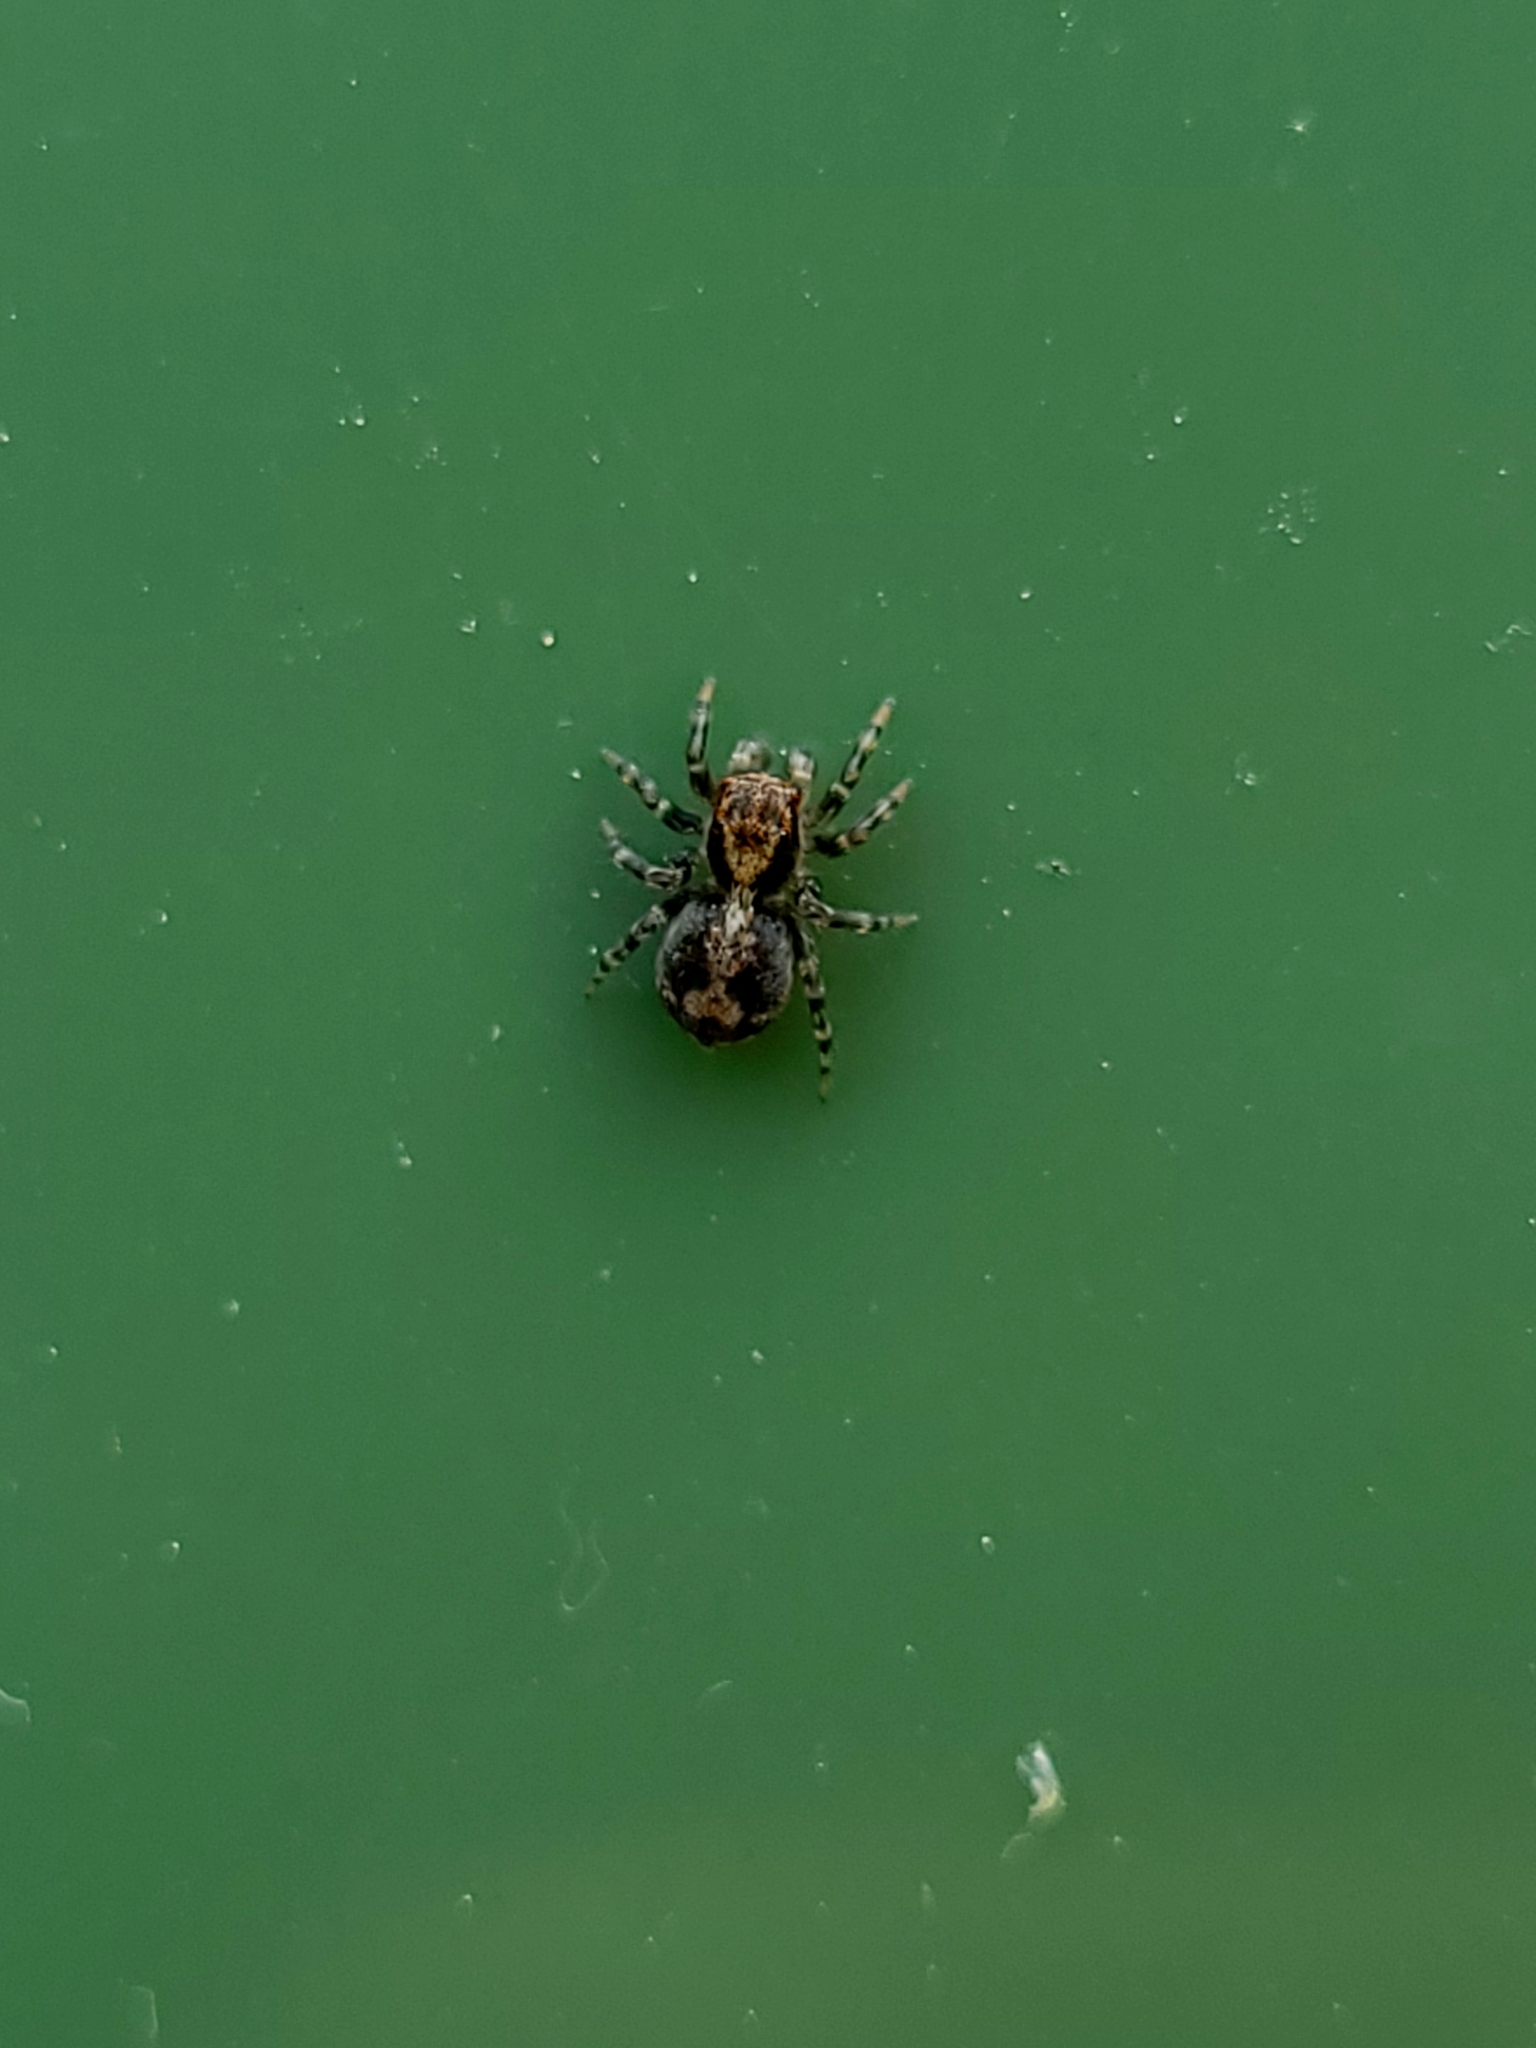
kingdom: Animalia
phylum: Arthropoda
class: Arachnida
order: Araneae
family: Salticidae
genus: Naphrys
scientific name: Naphrys pulex
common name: Flea jumping spider
